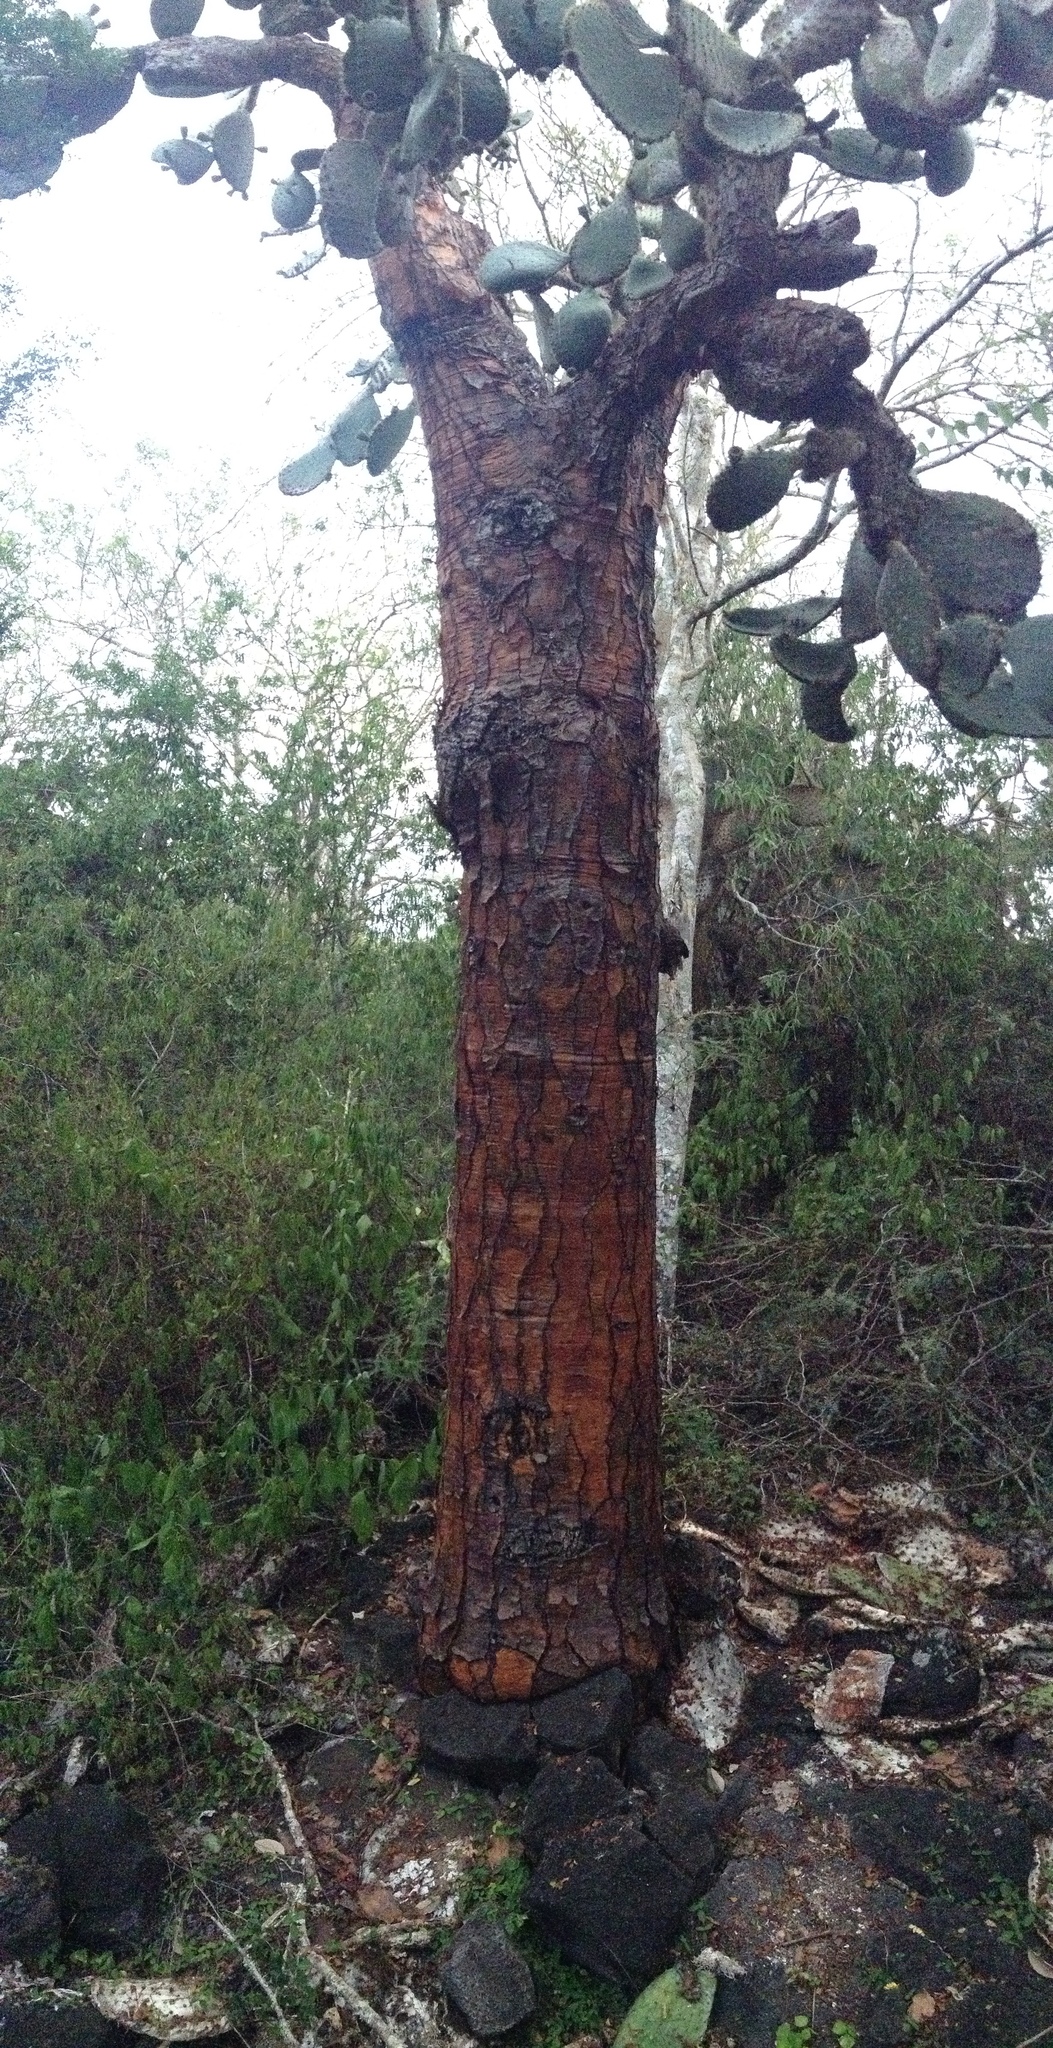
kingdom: Plantae
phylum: Tracheophyta
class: Magnoliopsida
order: Caryophyllales
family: Cactaceae
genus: Opuntia
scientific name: Opuntia galapageia
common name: Galápagos prickly pear
